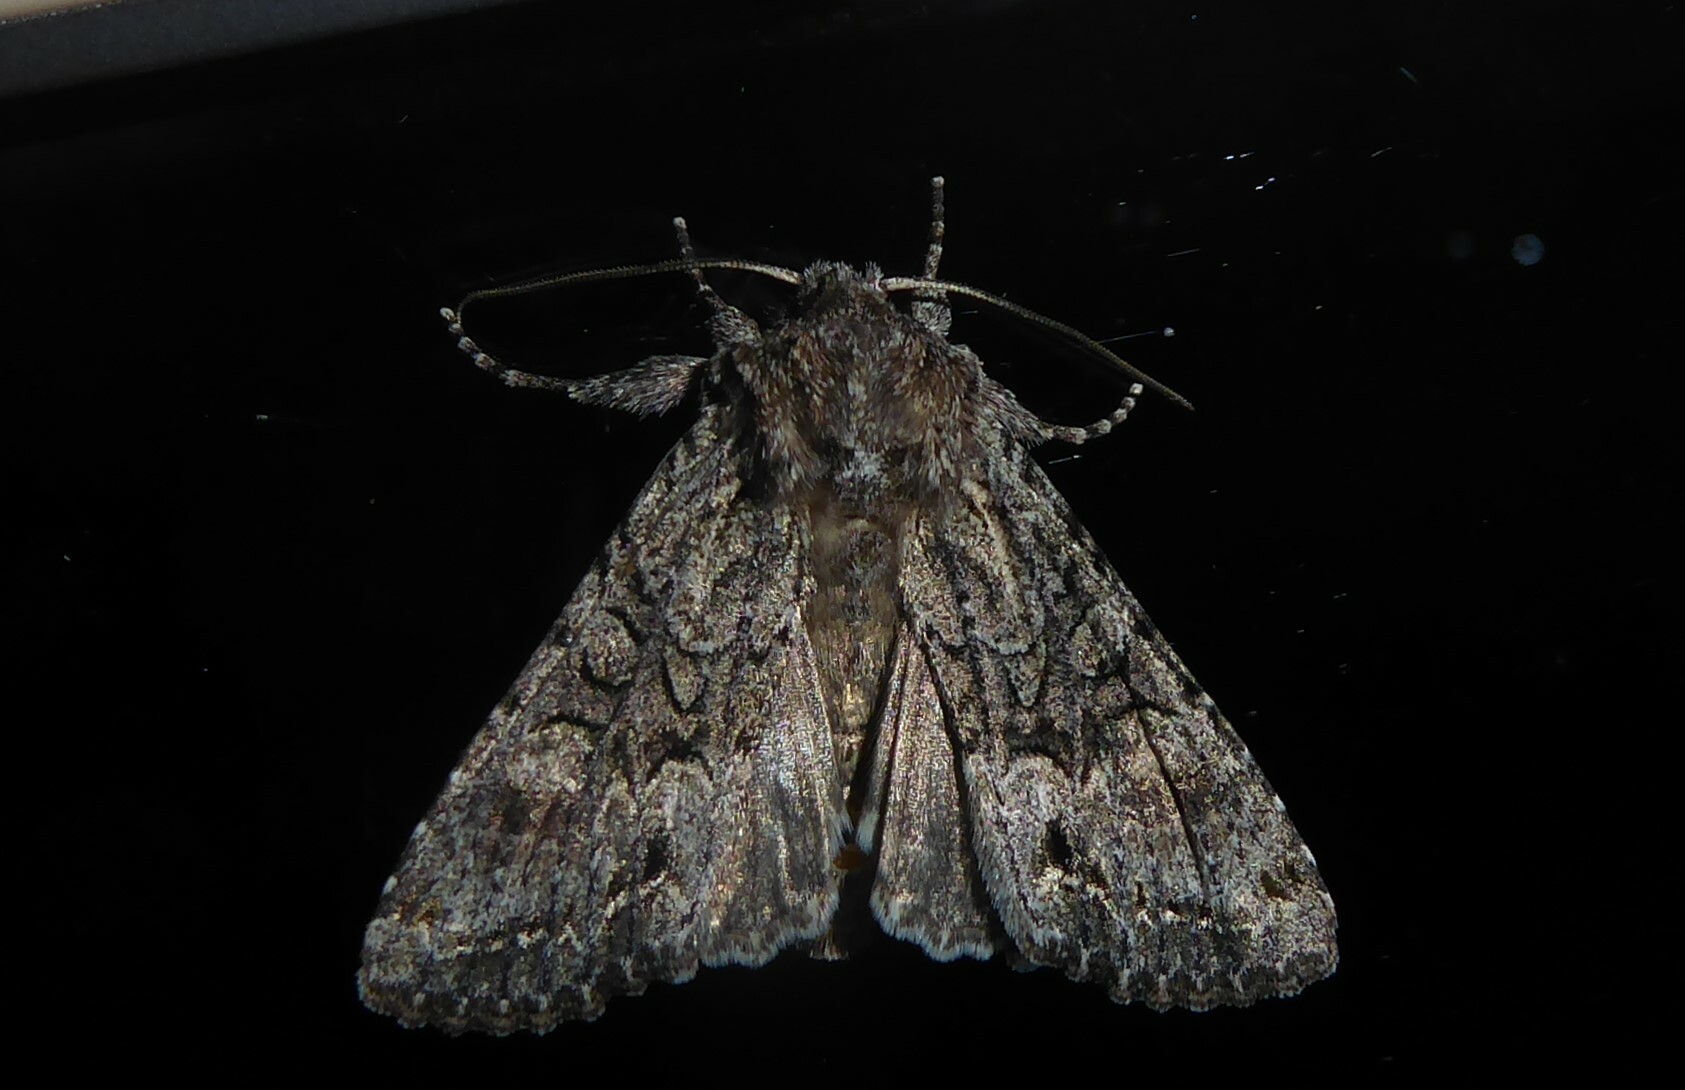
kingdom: Animalia
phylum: Arthropoda
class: Insecta
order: Lepidoptera
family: Noctuidae
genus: Ichneutica
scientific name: Ichneutica mutans
